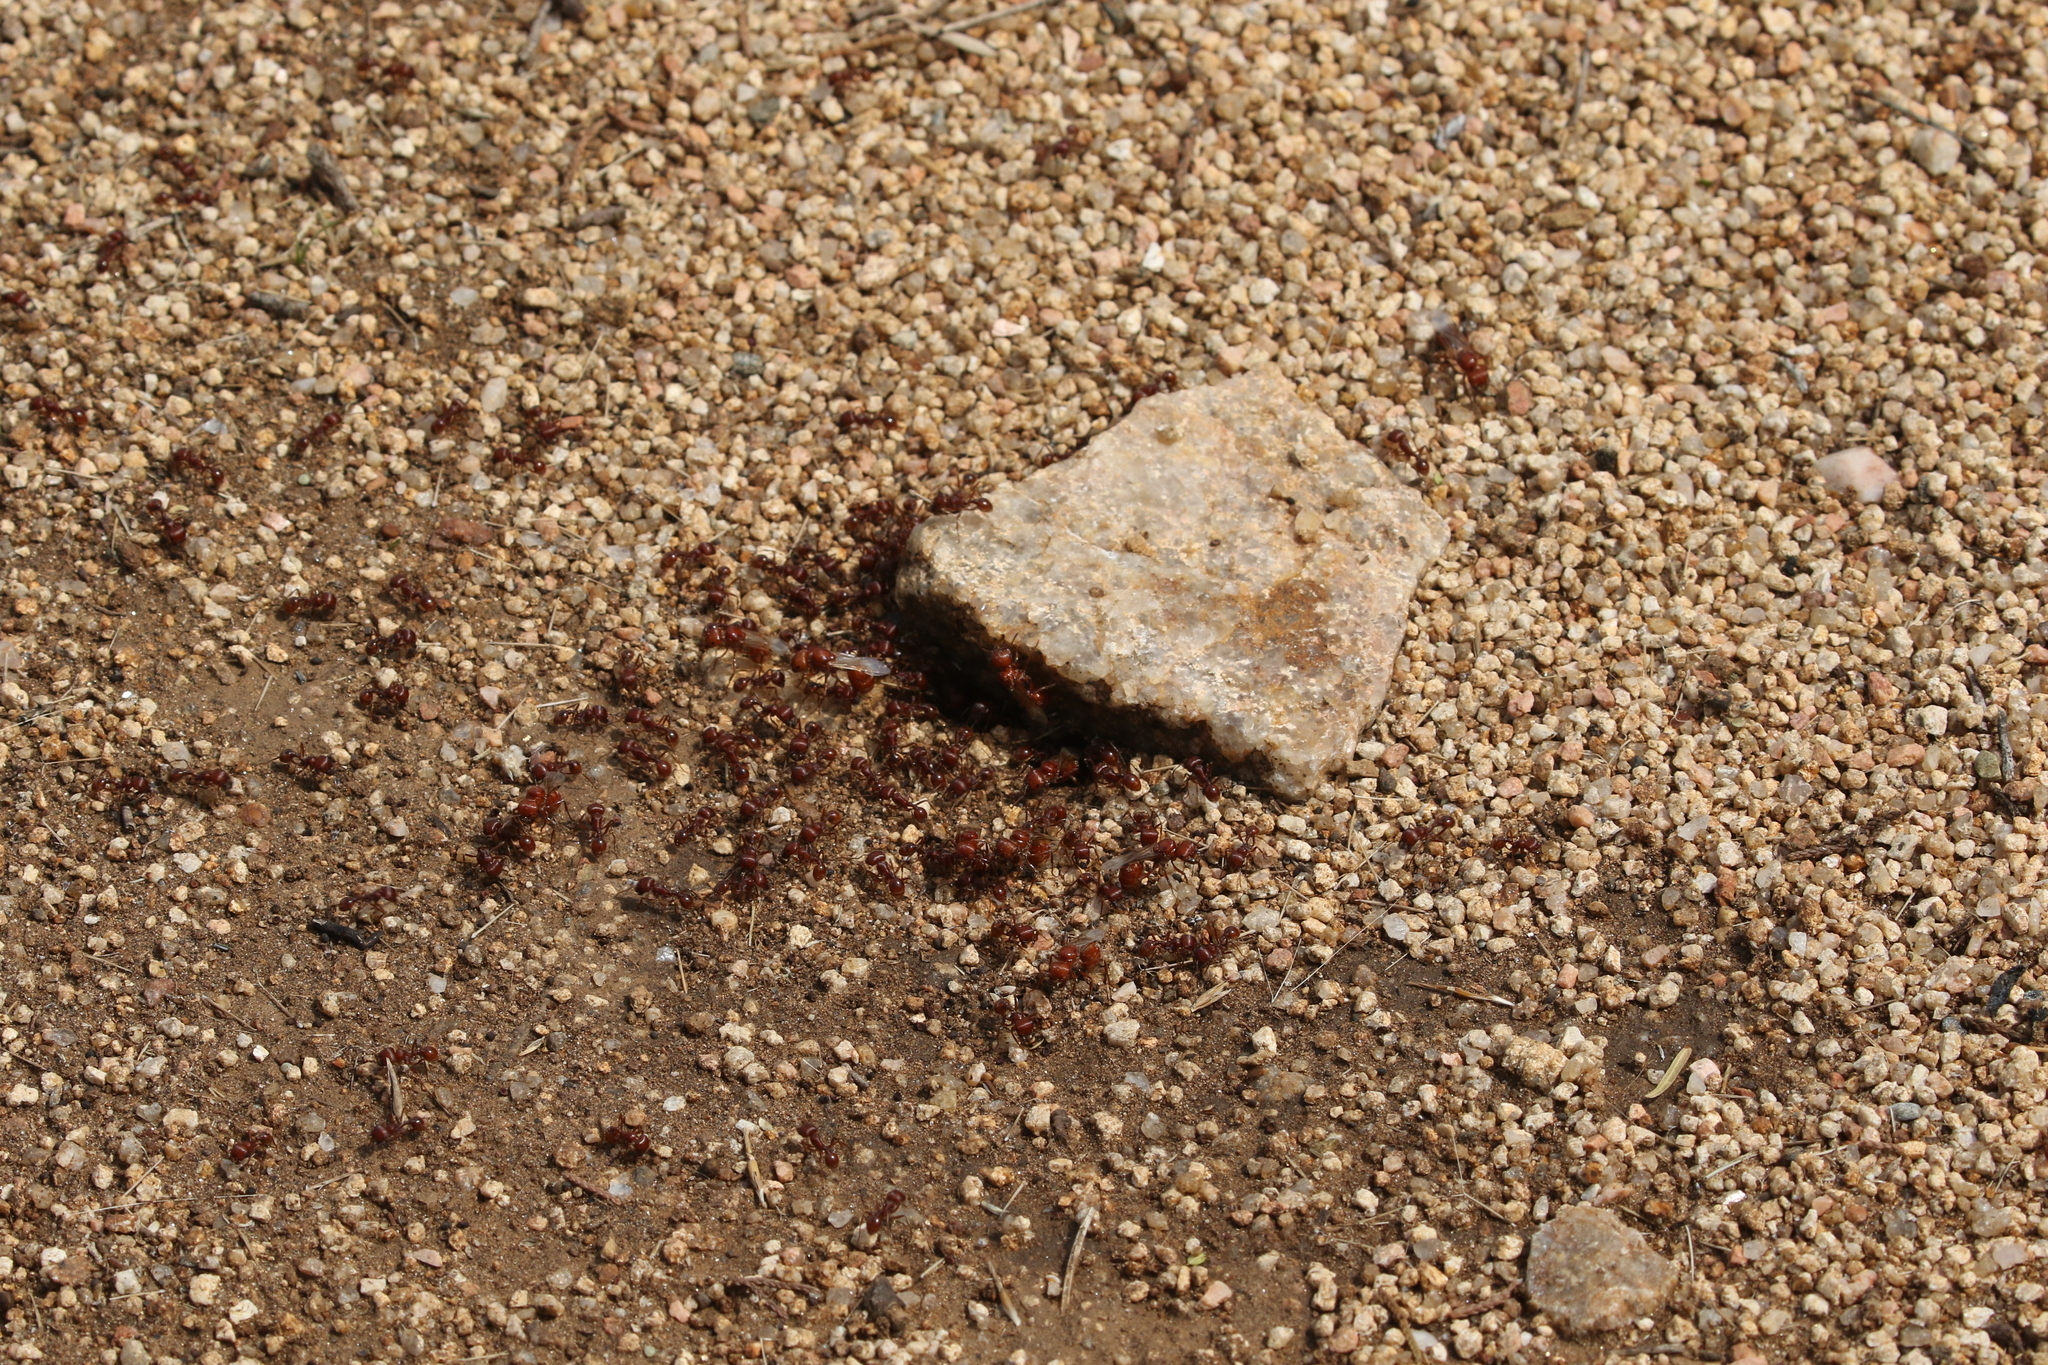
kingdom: Animalia
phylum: Arthropoda
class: Insecta
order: Hymenoptera
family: Formicidae
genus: Pogonomyrmex
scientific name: Pogonomyrmex barbatus
